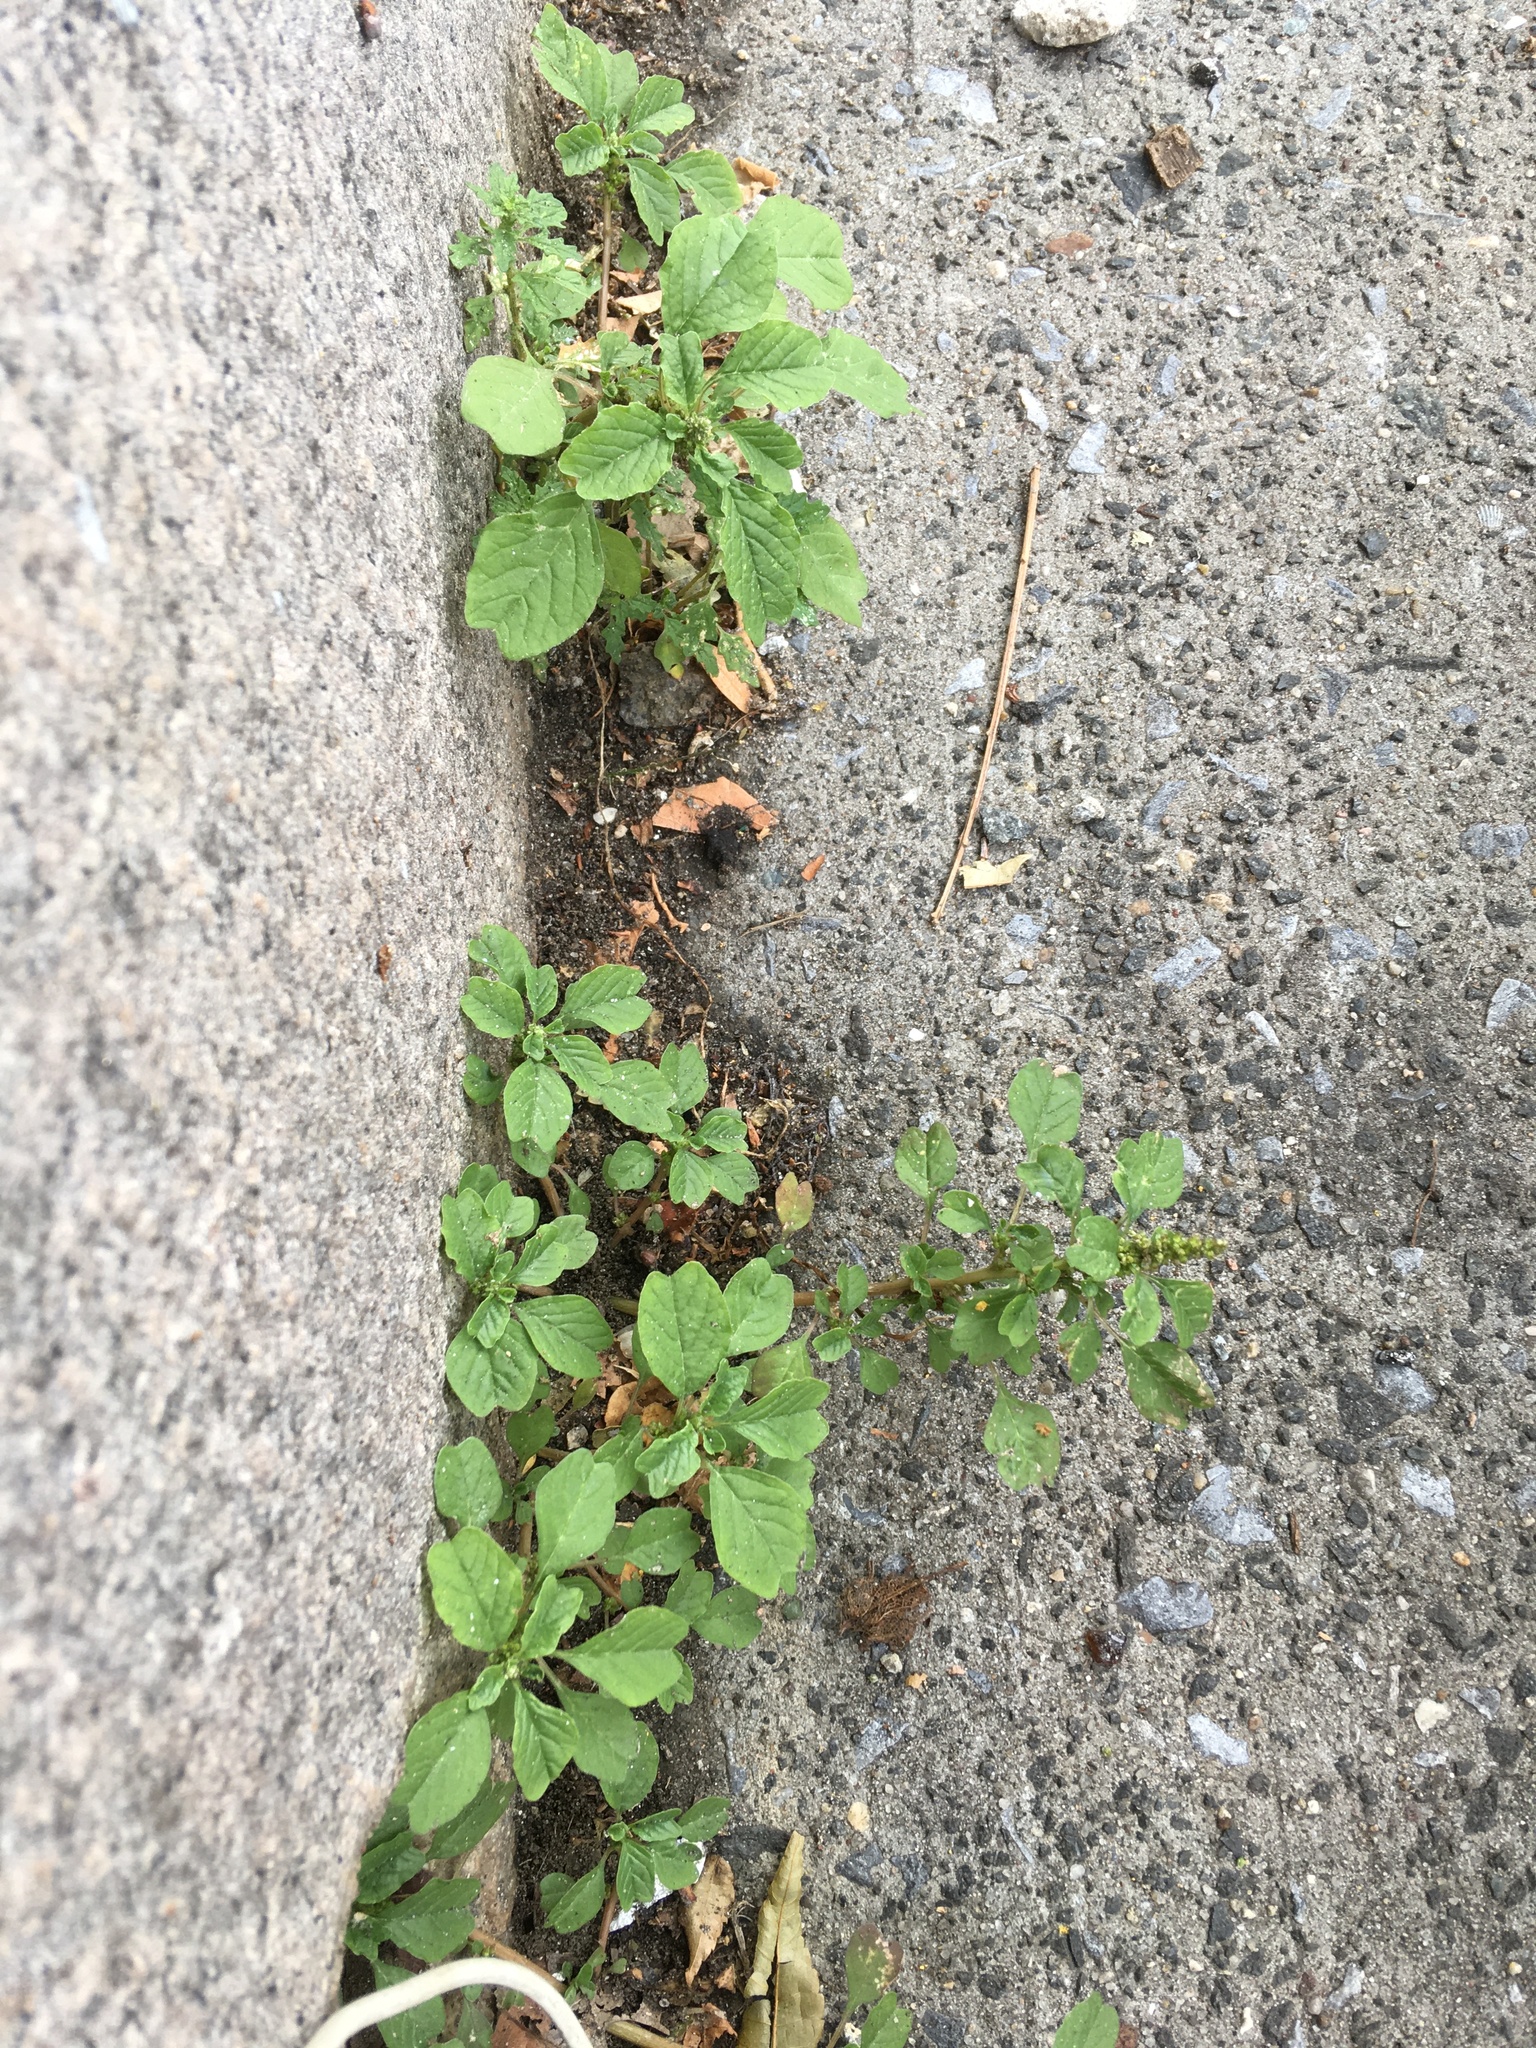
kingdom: Plantae
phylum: Tracheophyta
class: Magnoliopsida
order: Caryophyllales
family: Amaranthaceae
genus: Amaranthus
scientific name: Amaranthus blitum
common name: Purple amaranth
